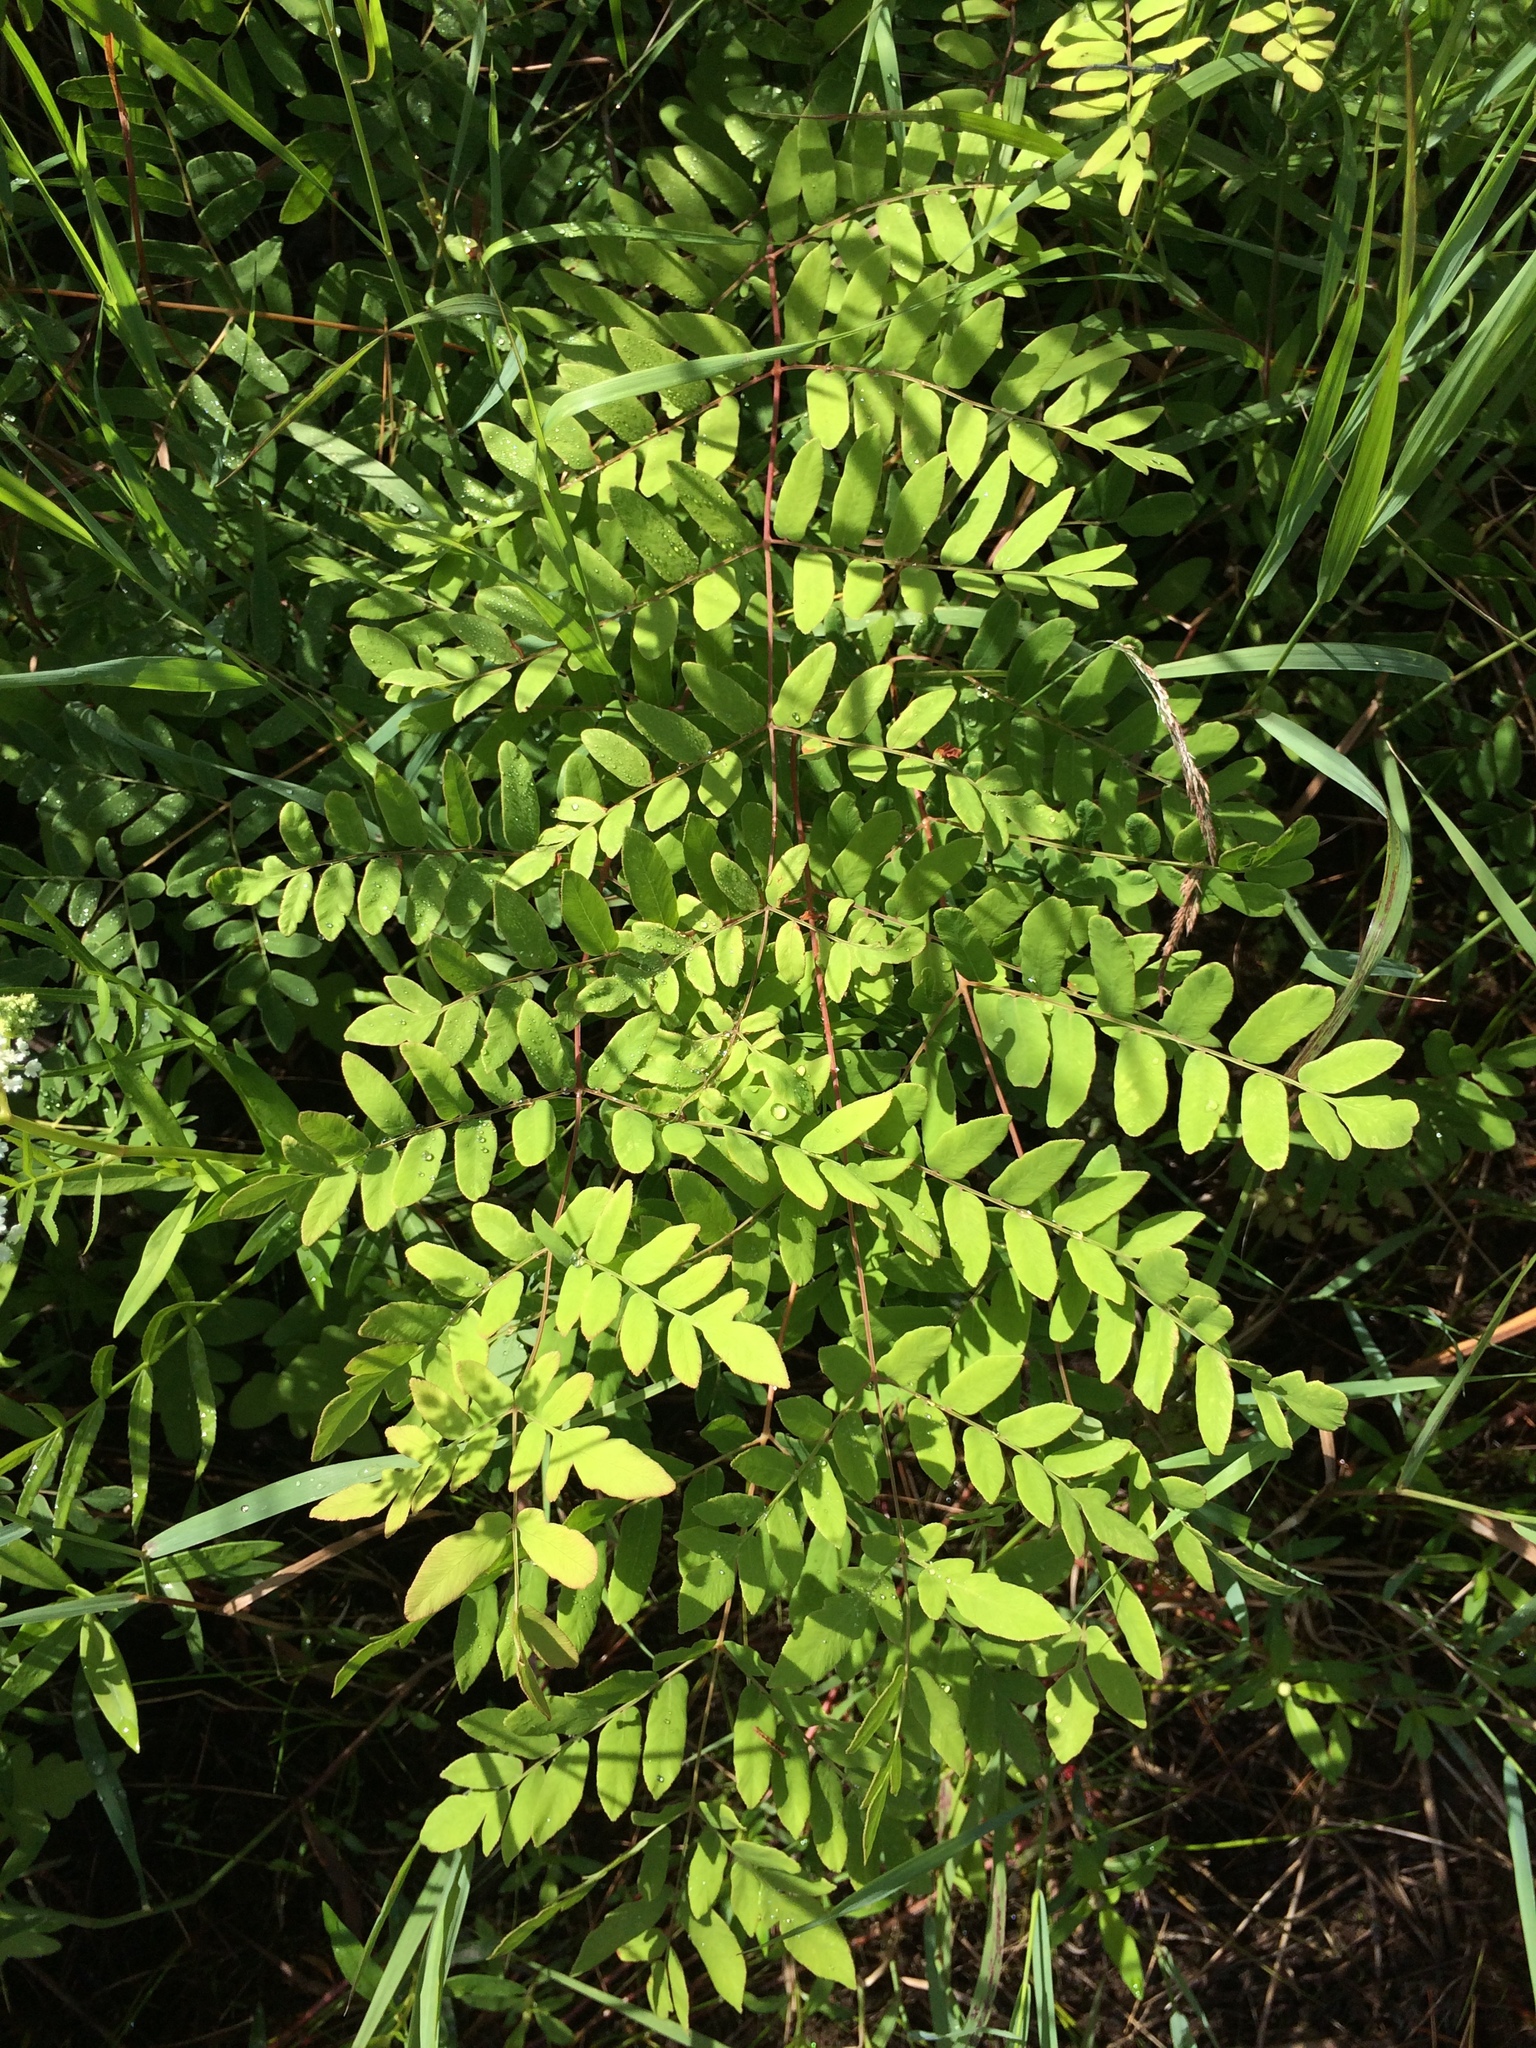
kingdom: Plantae
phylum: Tracheophyta
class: Polypodiopsida
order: Osmundales
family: Osmundaceae
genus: Osmunda
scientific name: Osmunda spectabilis
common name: American royal fern
